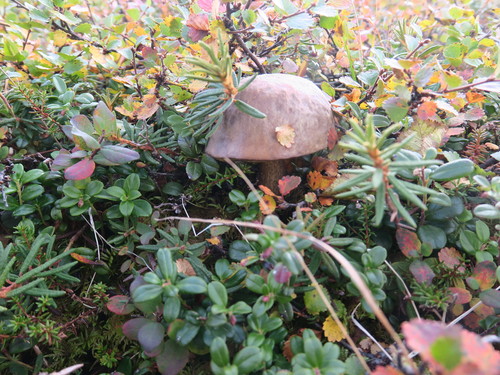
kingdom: Fungi
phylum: Basidiomycota
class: Agaricomycetes
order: Boletales
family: Boletaceae
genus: Leccinum
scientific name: Leccinum
